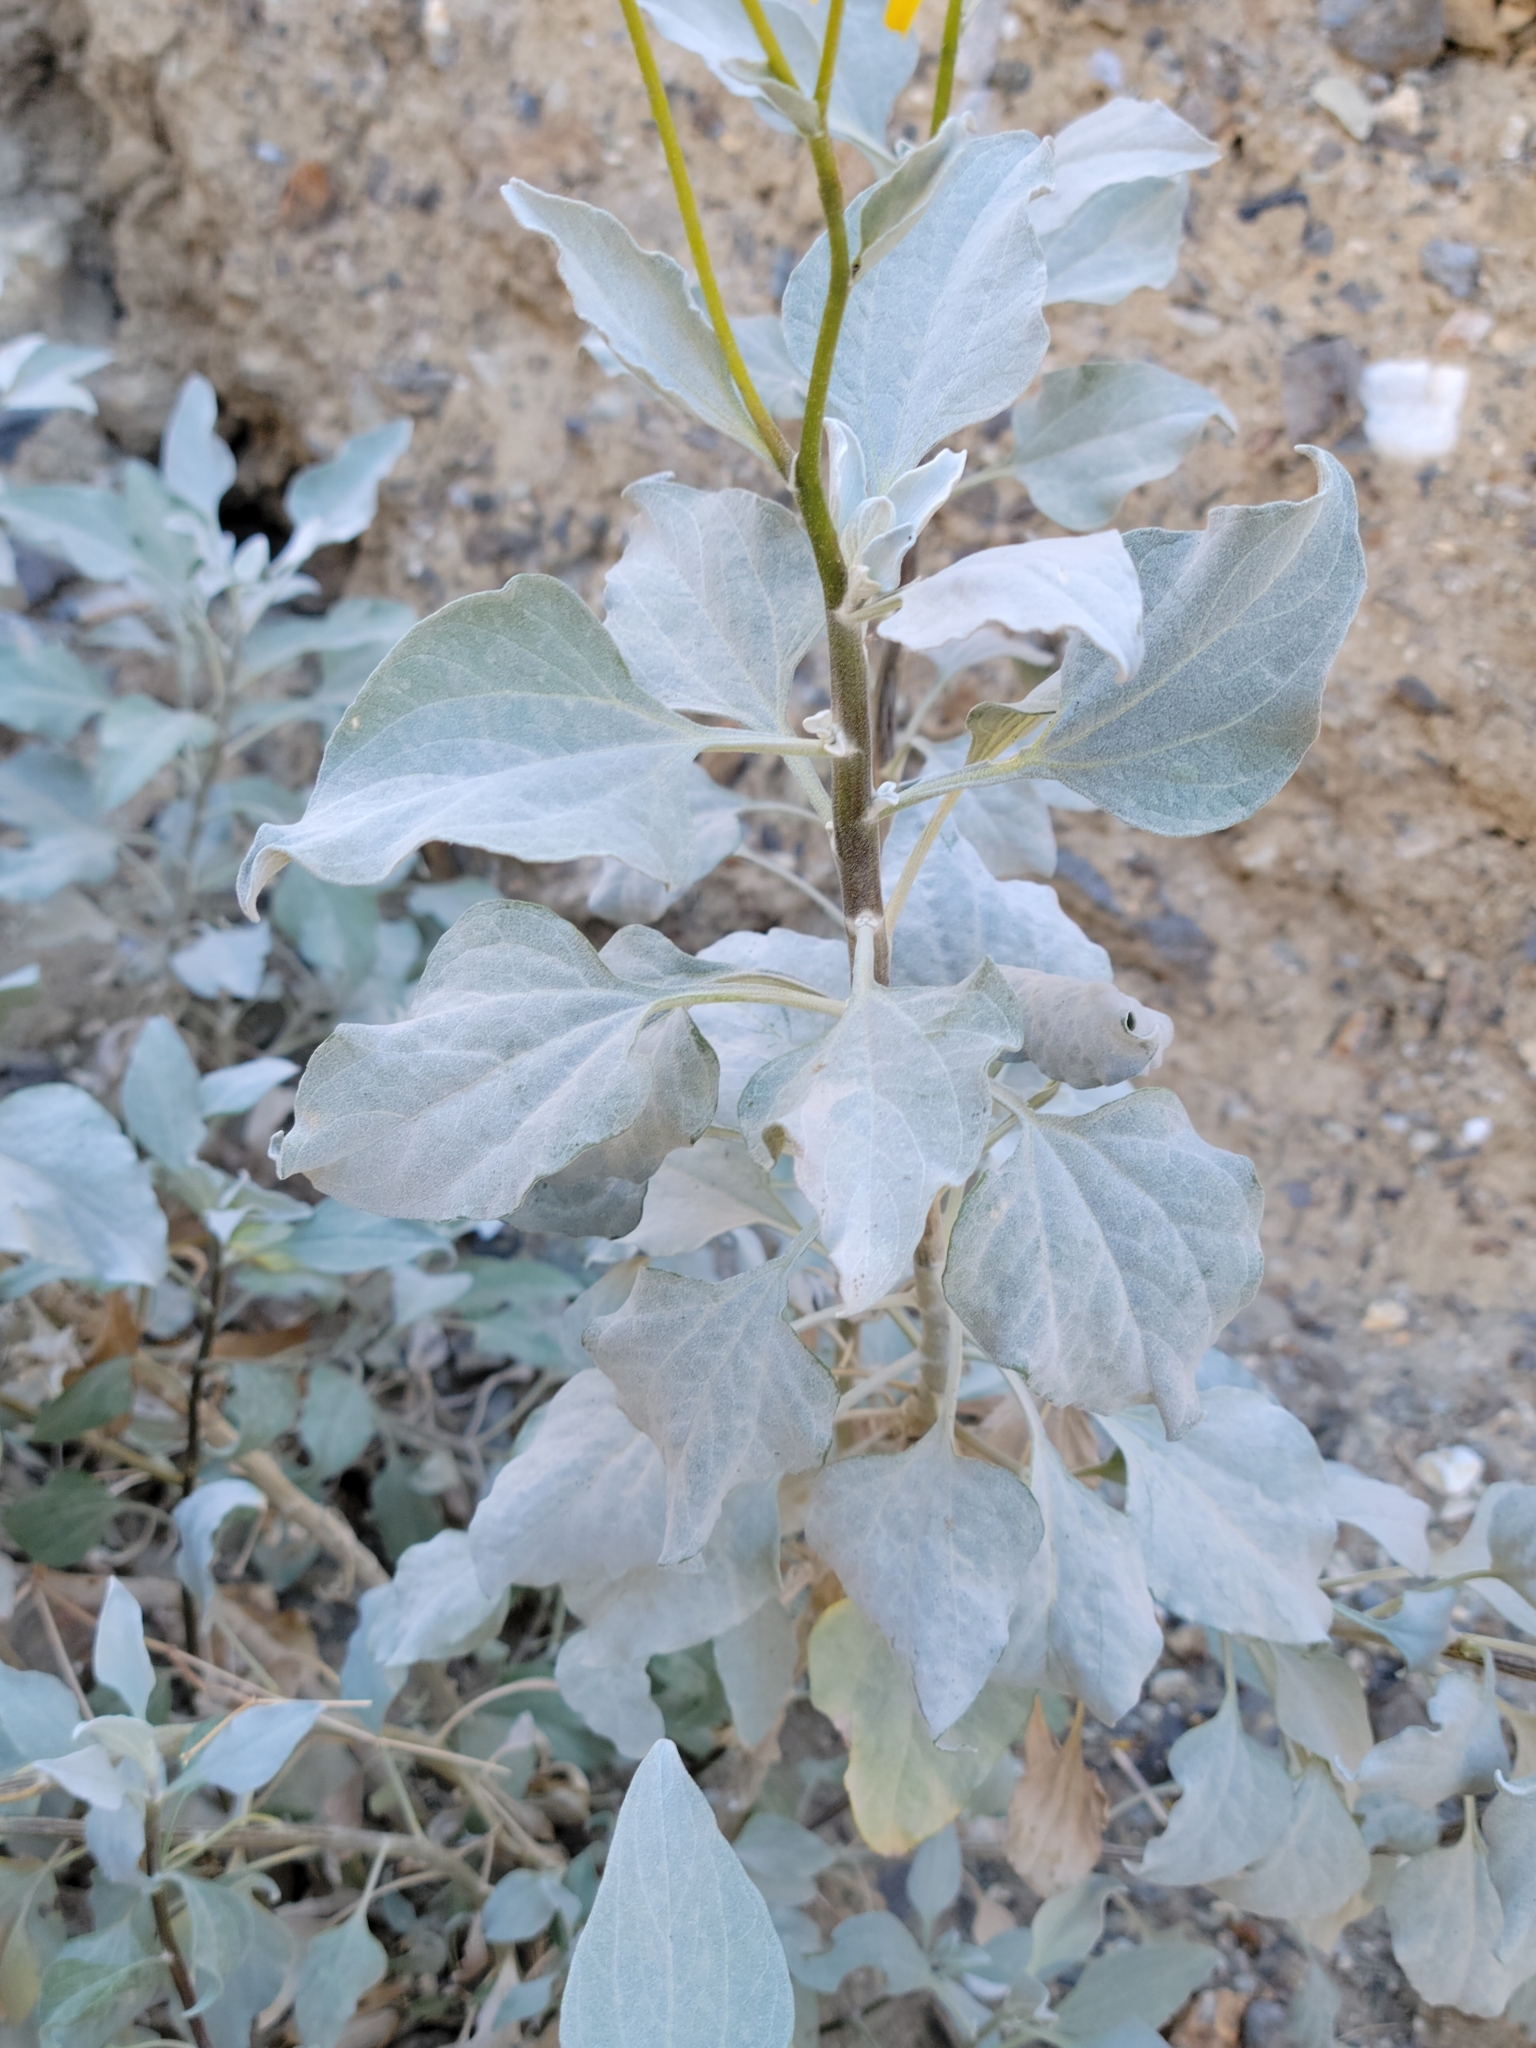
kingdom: Plantae
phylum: Tracheophyta
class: Magnoliopsida
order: Asterales
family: Asteraceae
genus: Encelia
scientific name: Encelia farinosa
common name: Brittlebush
